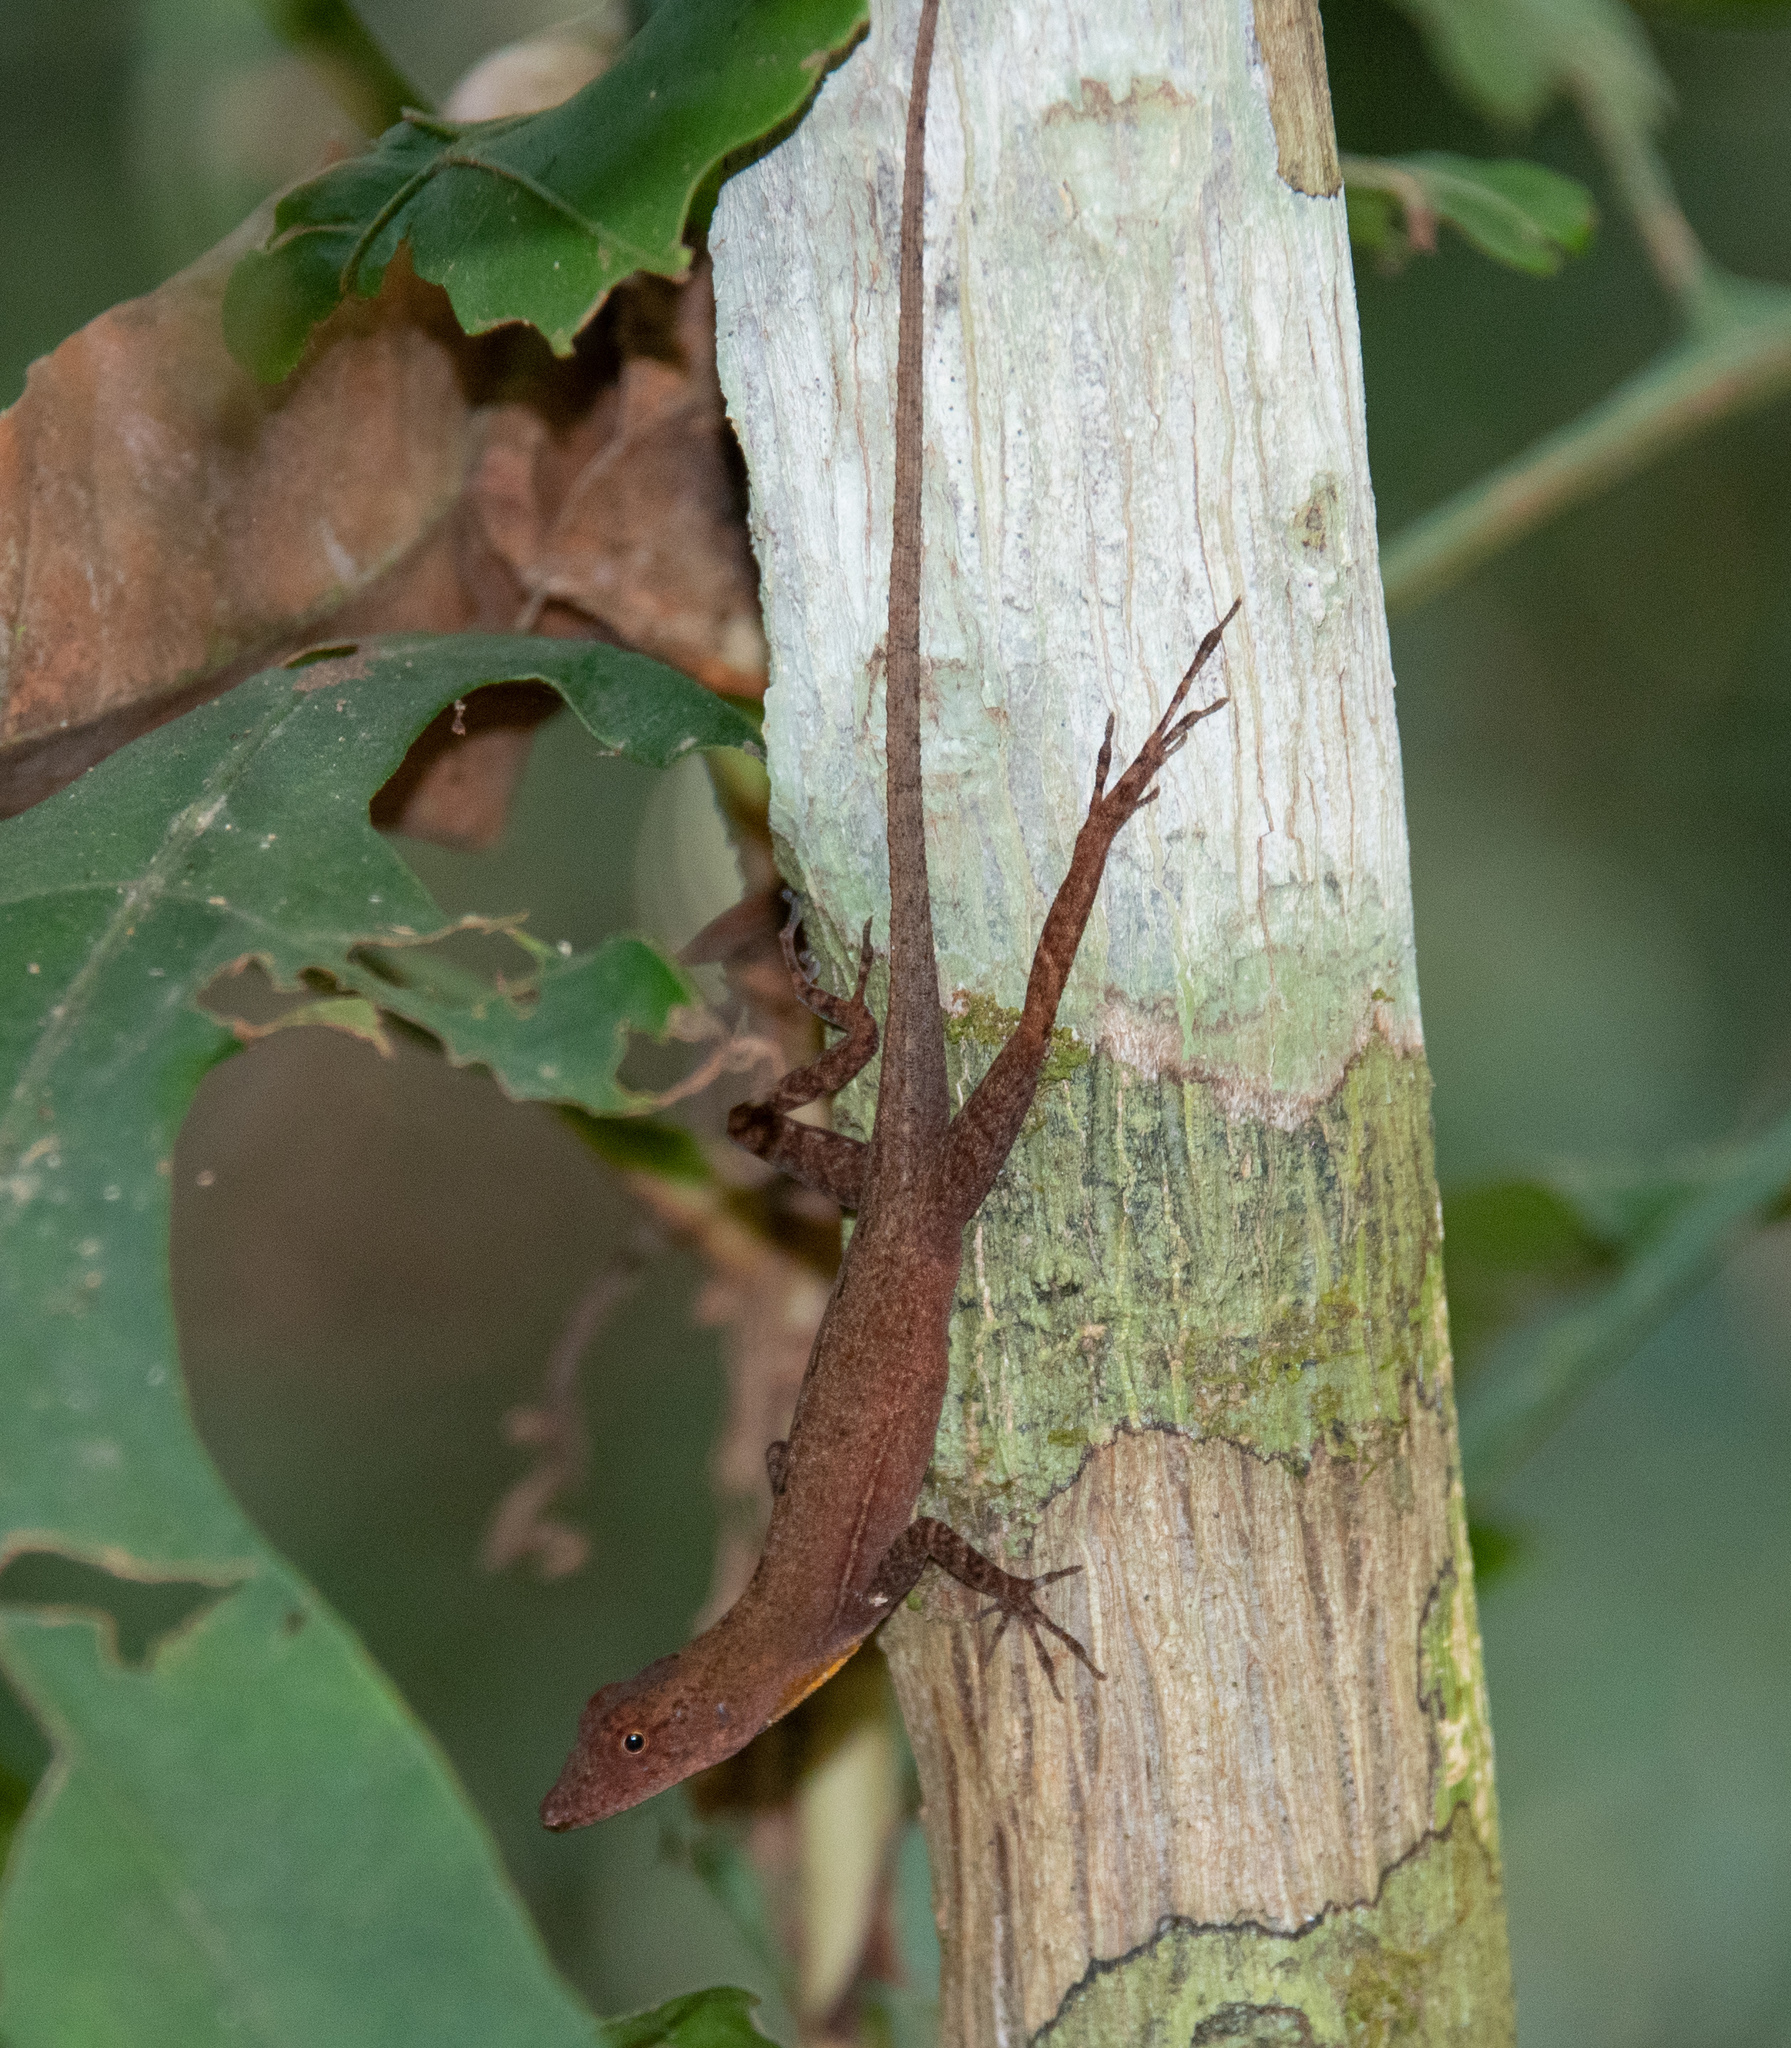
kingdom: Animalia
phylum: Chordata
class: Squamata
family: Dactyloidae
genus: Anolis
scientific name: Anolis osa
